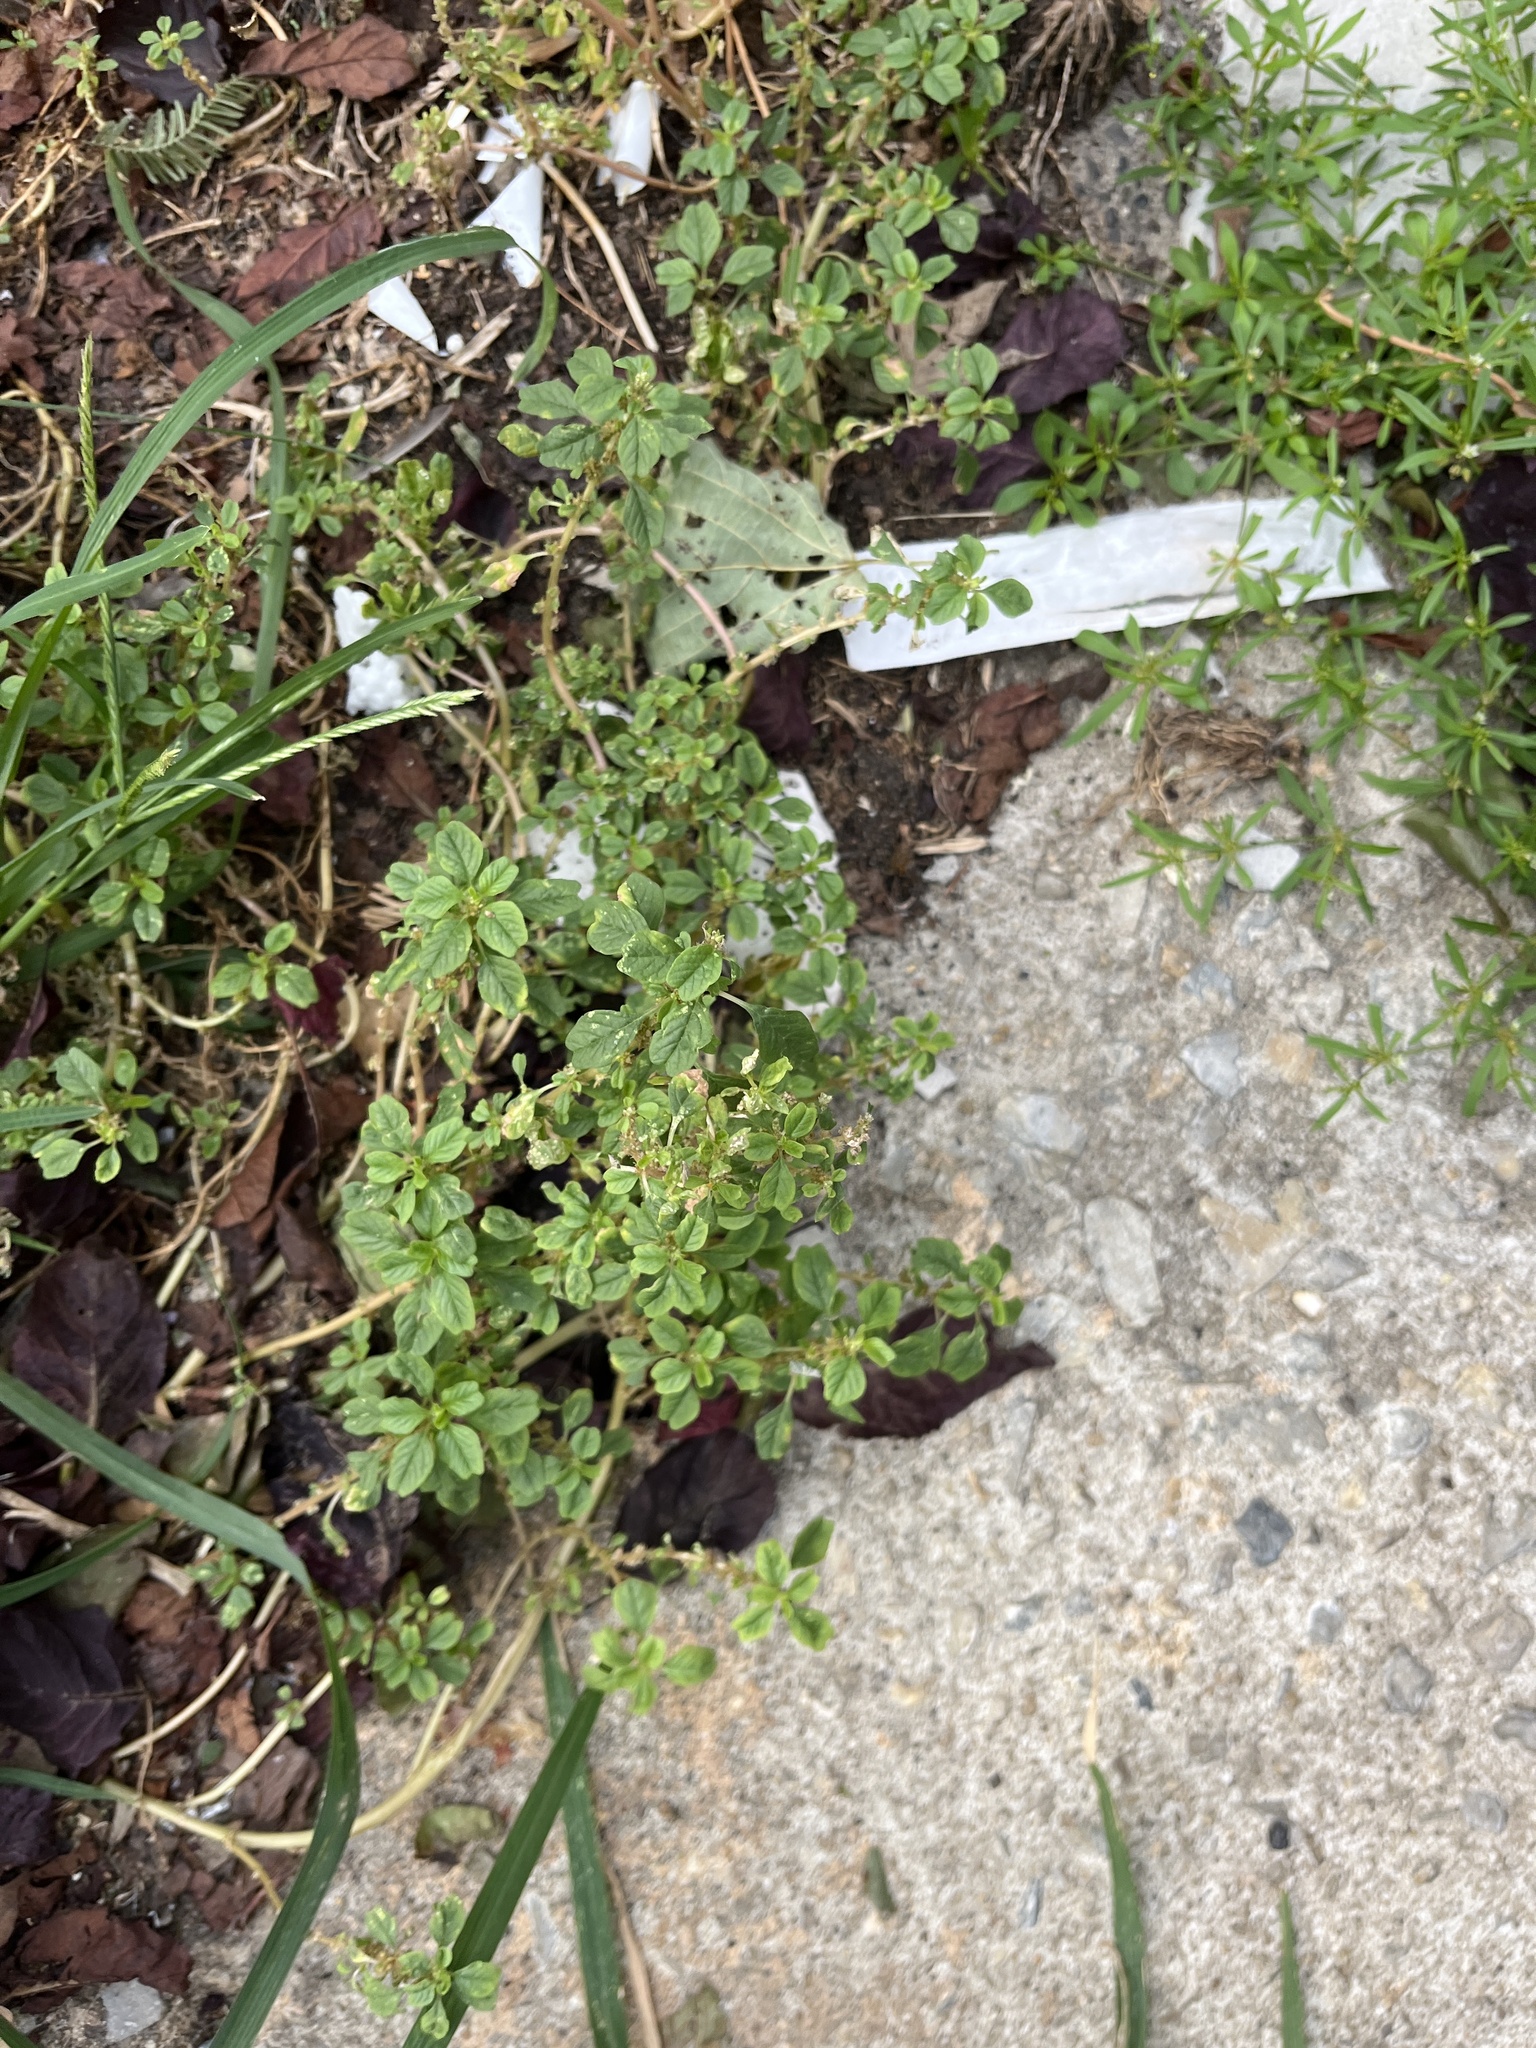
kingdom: Plantae
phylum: Tracheophyta
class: Magnoliopsida
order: Caryophyllales
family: Amaranthaceae
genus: Dysphania
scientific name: Dysphania pumilio
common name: Clammy goosefoot
